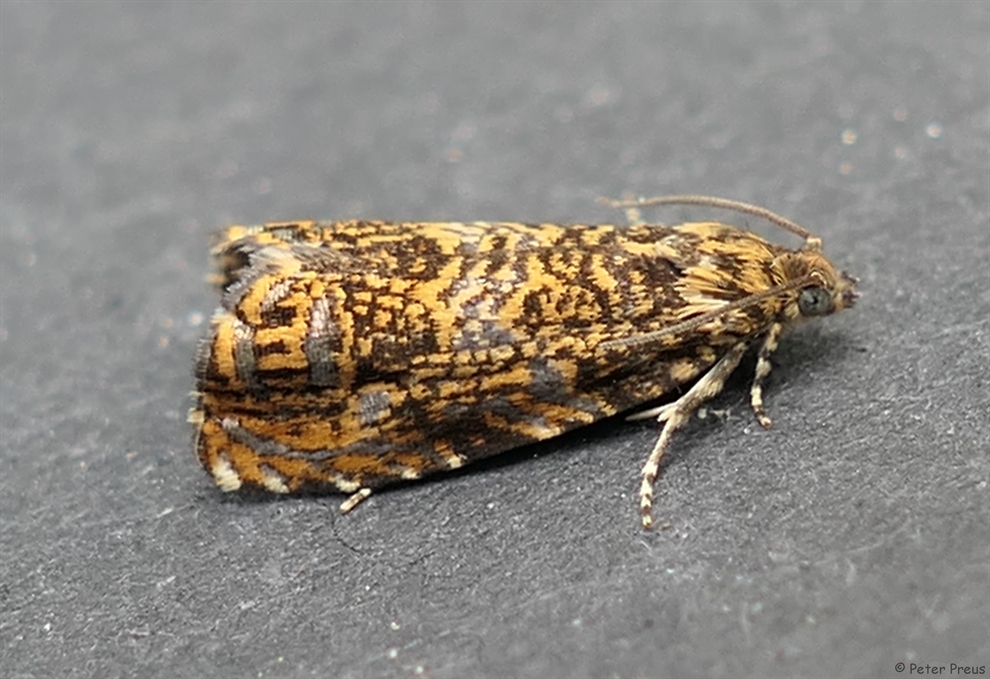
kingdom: Animalia
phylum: Arthropoda
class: Insecta
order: Lepidoptera
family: Tortricidae
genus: Enarmonia
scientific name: Enarmonia formosana
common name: Cherry bark tortrix
